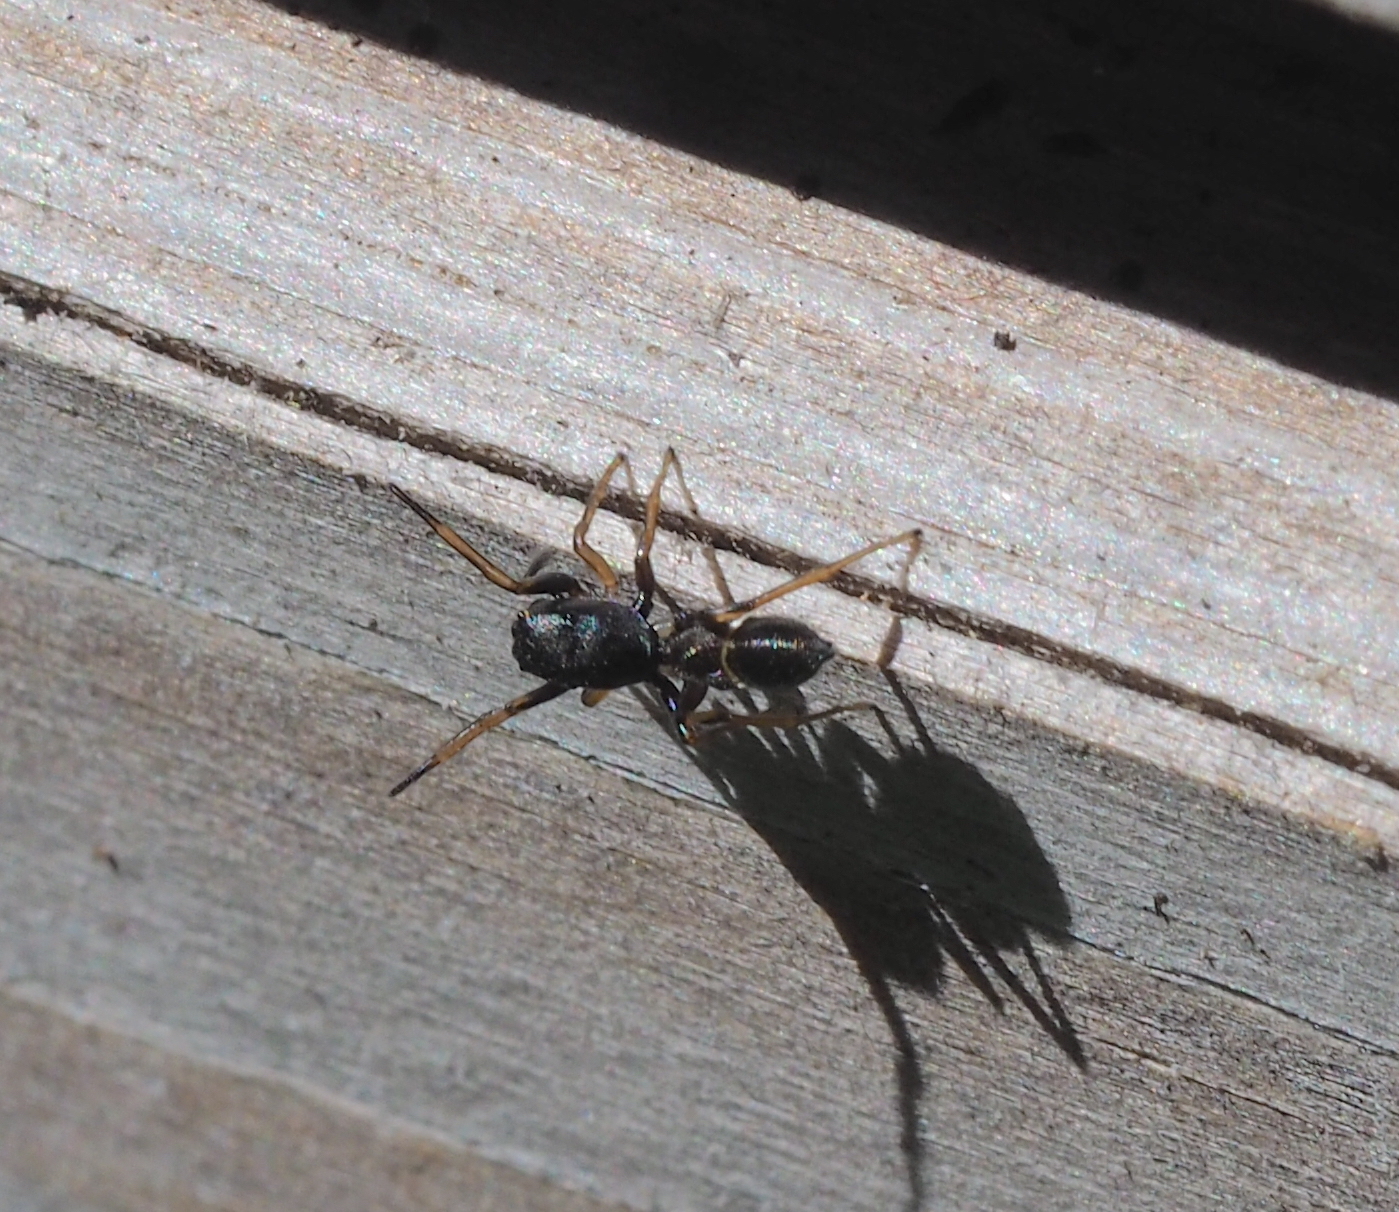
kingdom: Animalia
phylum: Arthropoda
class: Arachnida
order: Araneae
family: Salticidae
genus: Leptorchestes
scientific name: Leptorchestes berolinensis
